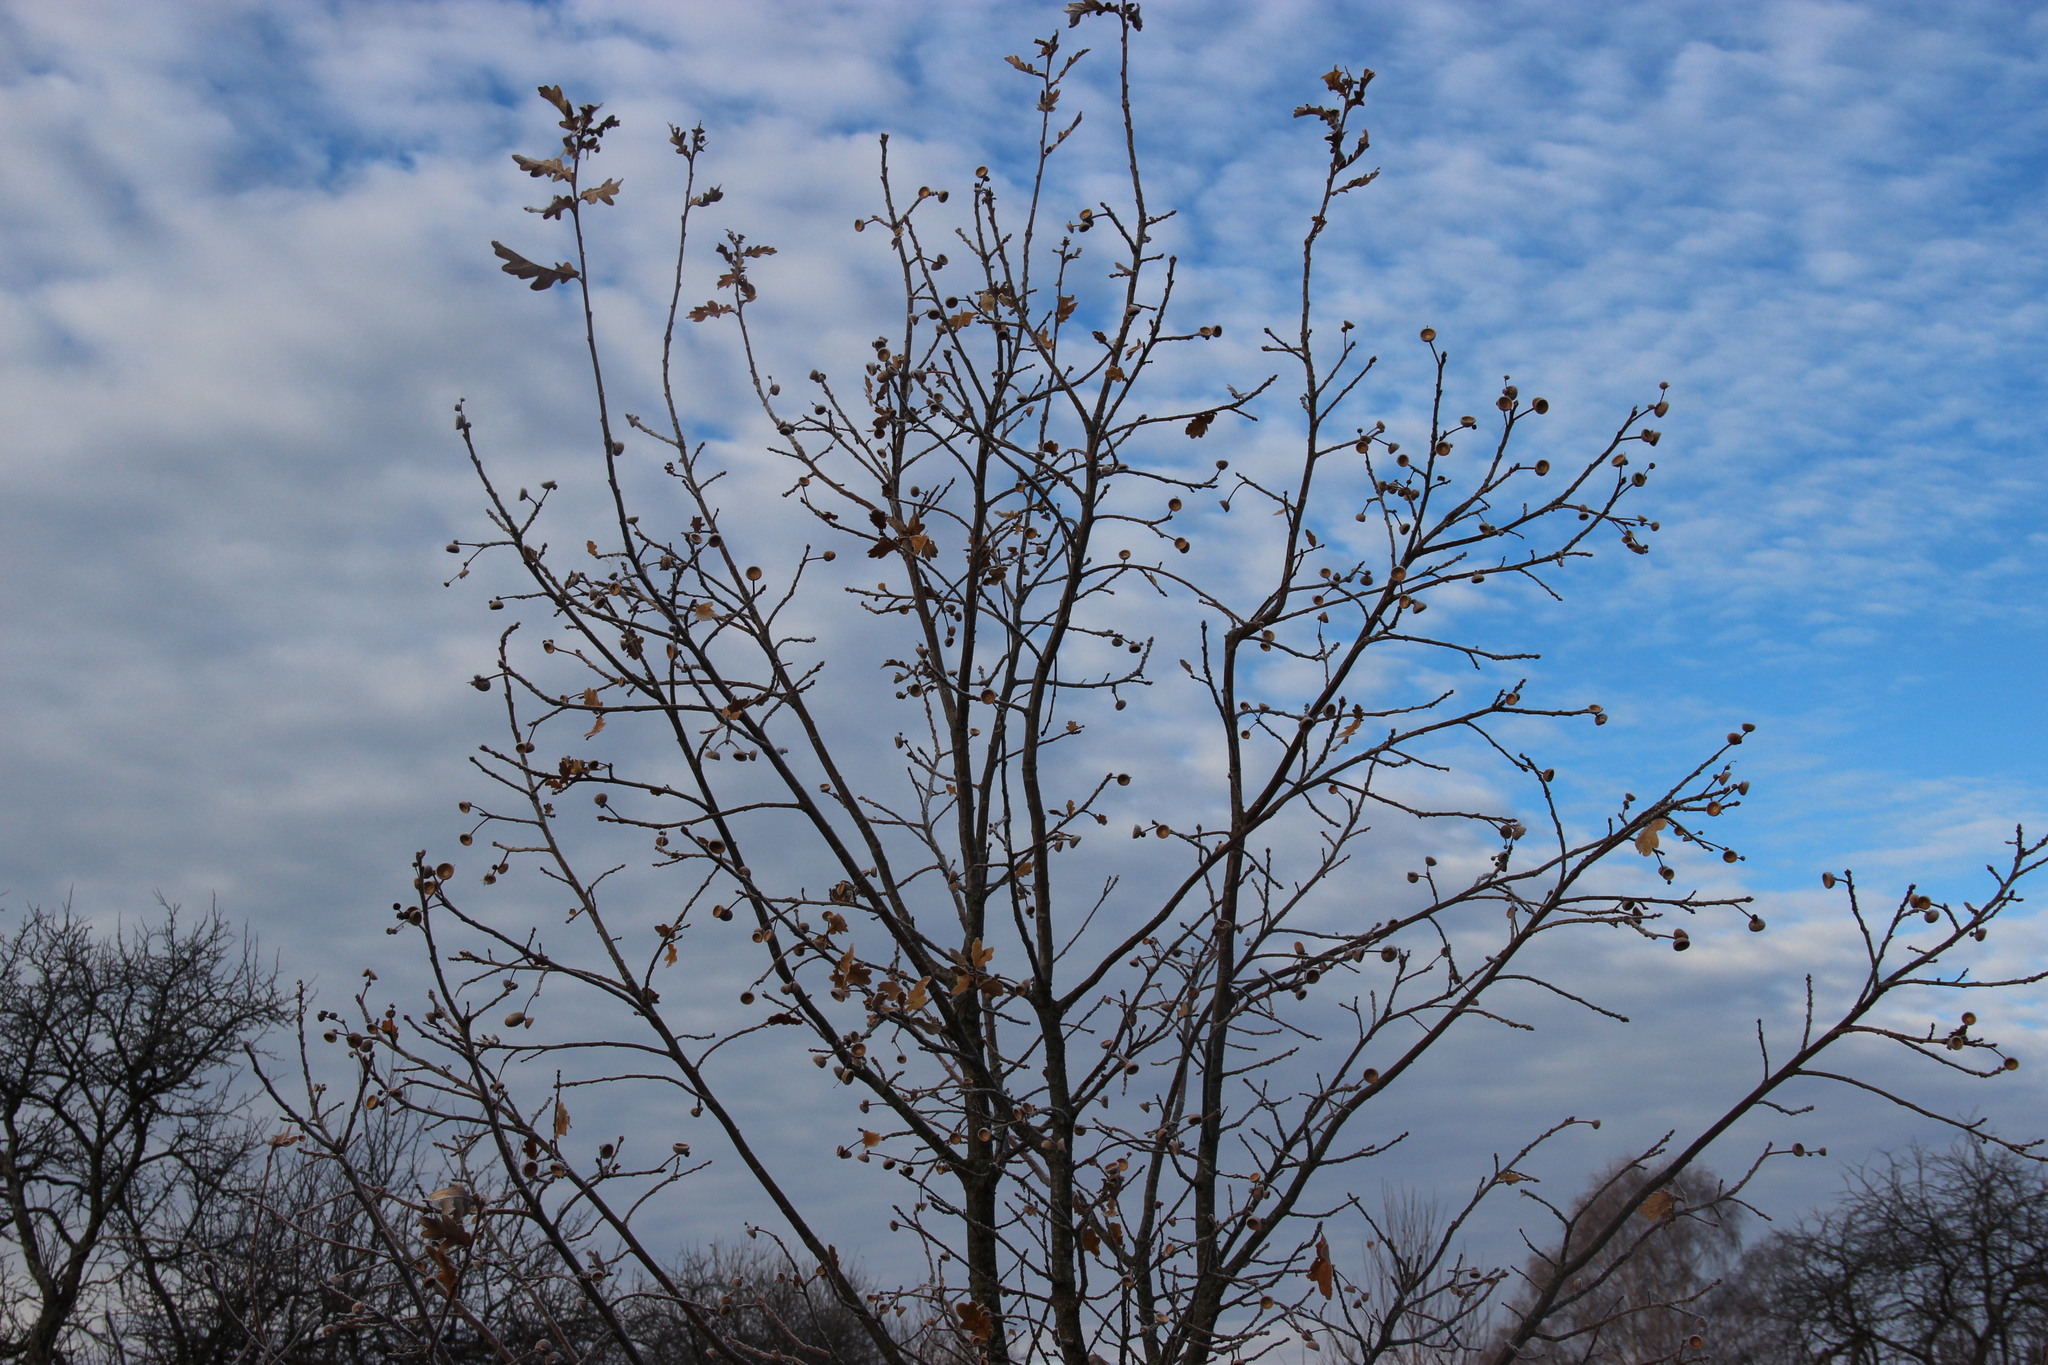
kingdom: Plantae
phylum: Tracheophyta
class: Magnoliopsida
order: Fagales
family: Fagaceae
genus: Quercus
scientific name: Quercus robur
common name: Pedunculate oak
